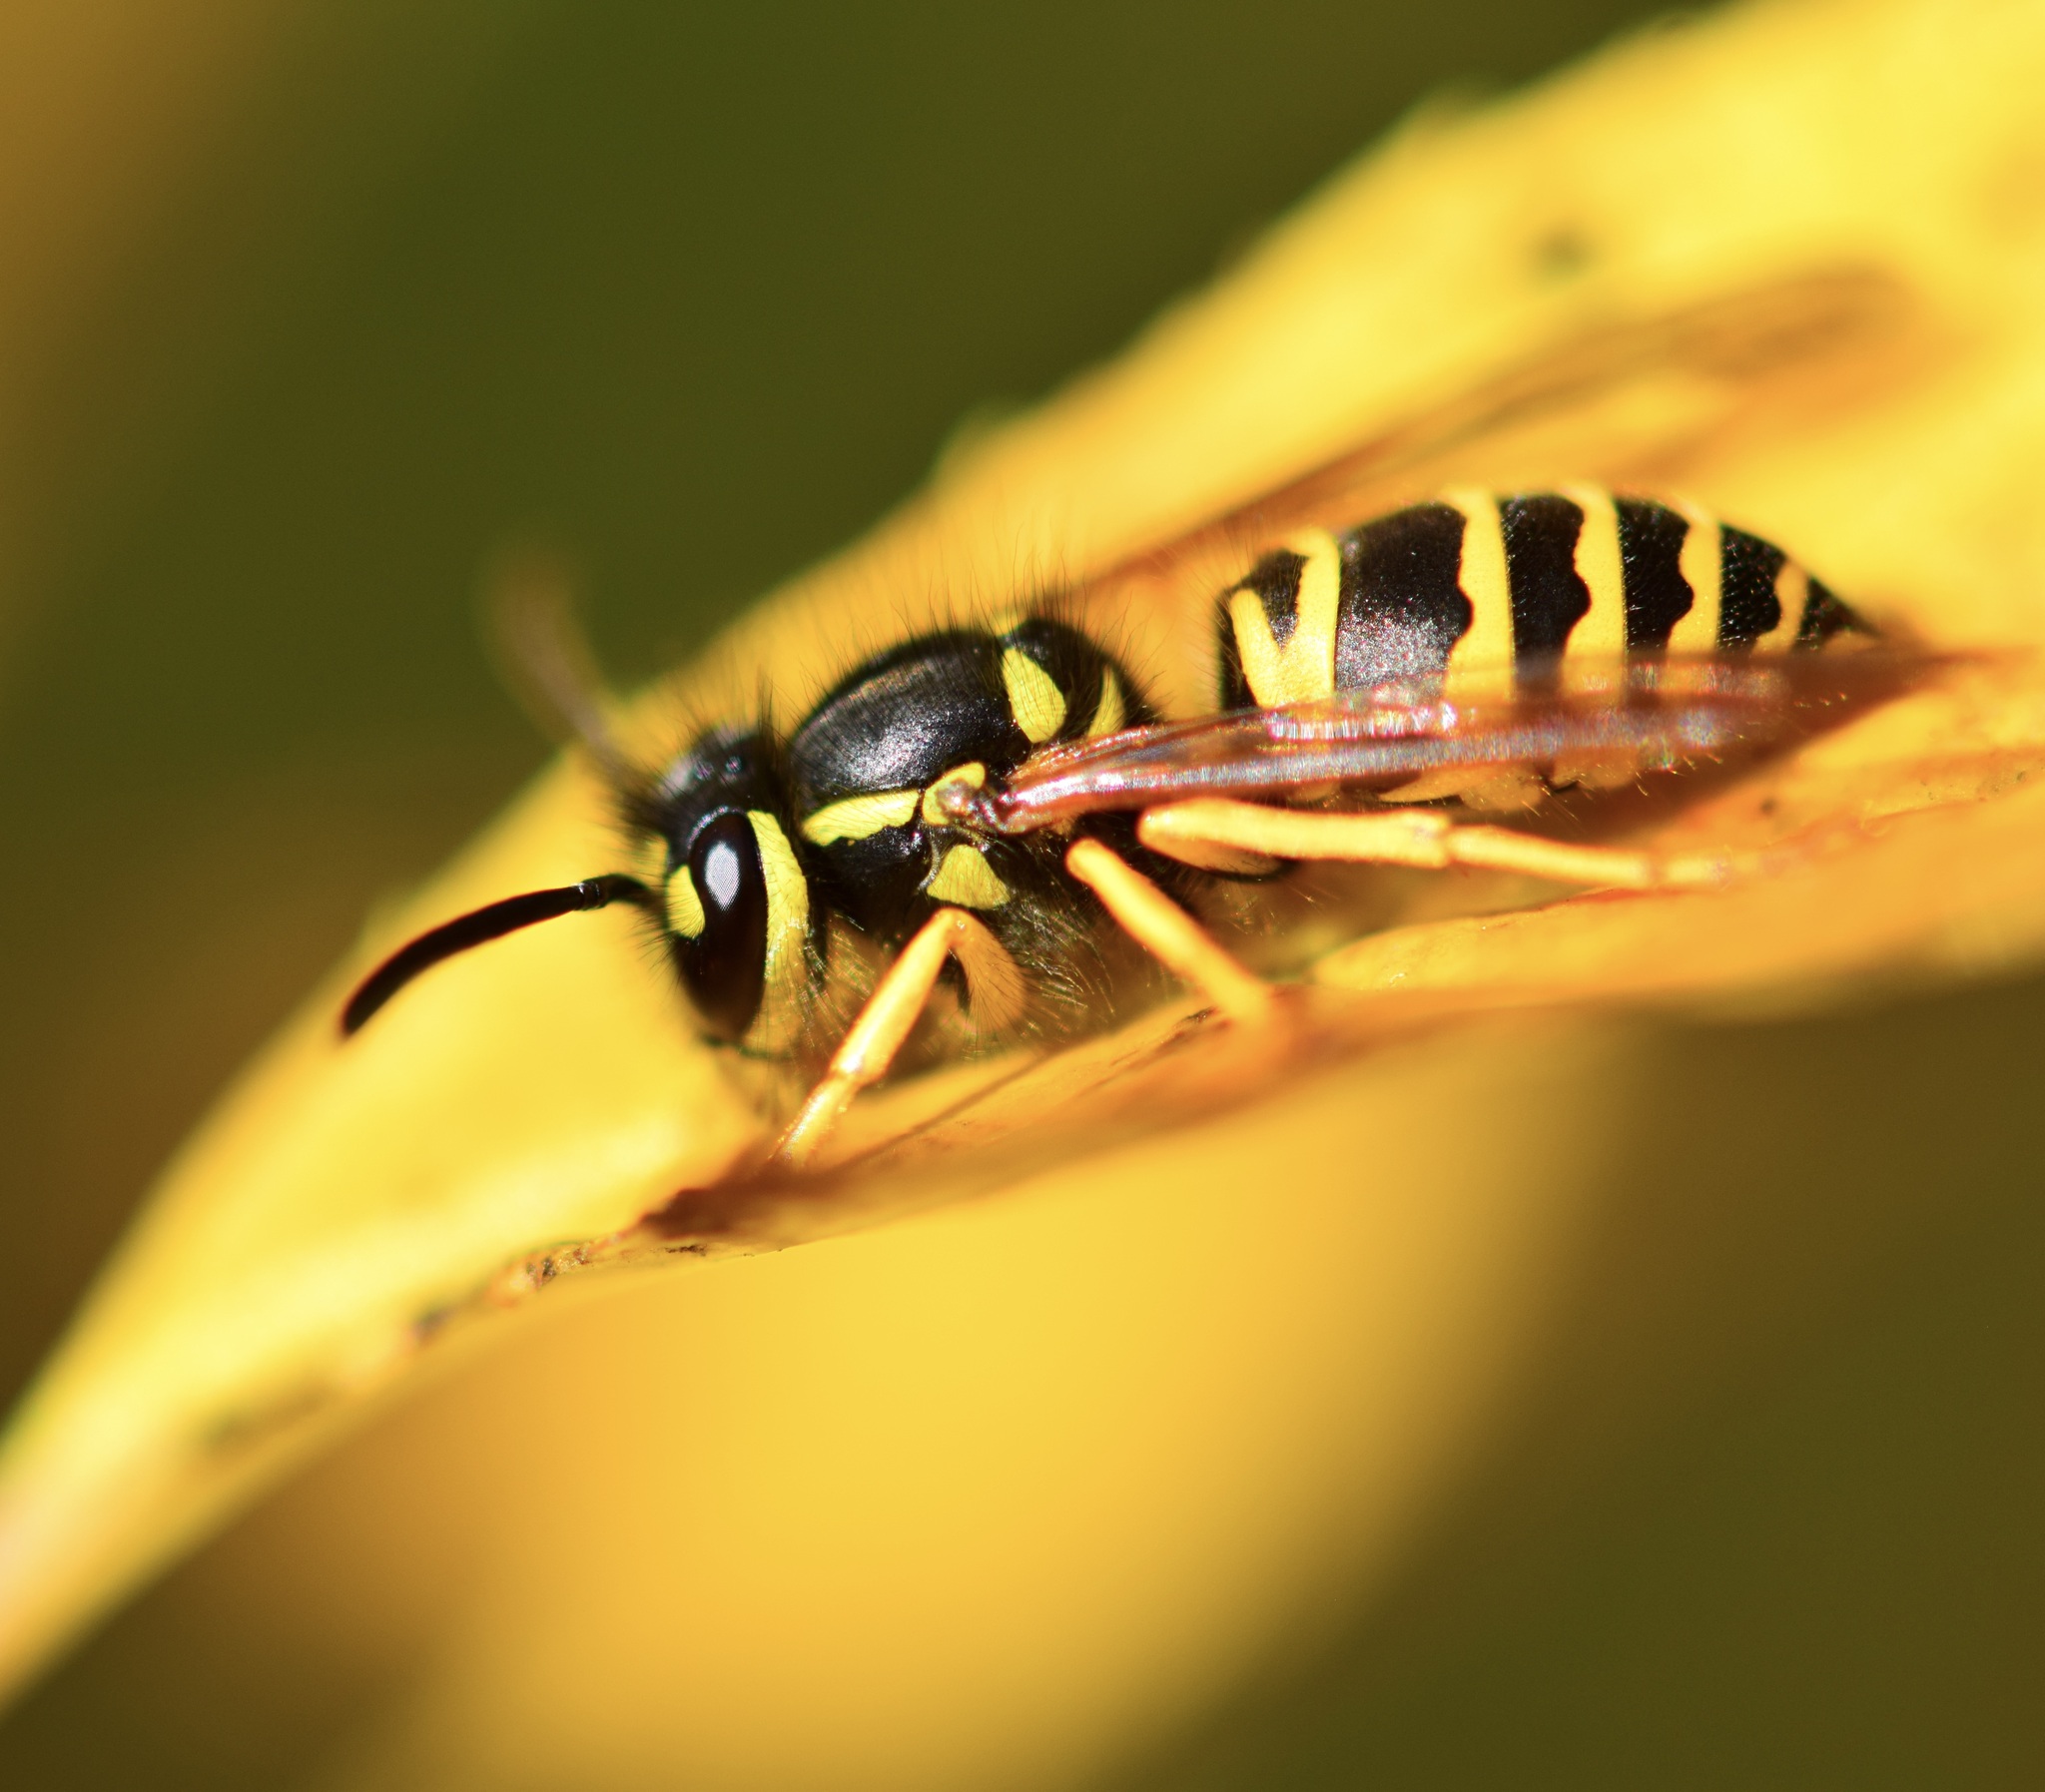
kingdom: Animalia
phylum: Arthropoda
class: Insecta
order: Hymenoptera
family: Vespidae
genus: Vespula
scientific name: Vespula maculifrons
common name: Eastern yellowjacket
